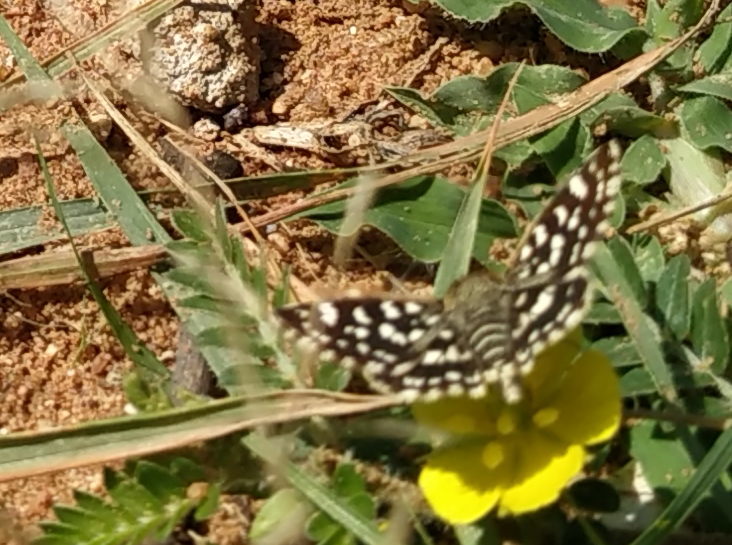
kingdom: Animalia
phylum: Arthropoda
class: Insecta
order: Lepidoptera
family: Hesperiidae
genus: Spialia
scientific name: Spialia galba
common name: Indian skipper
